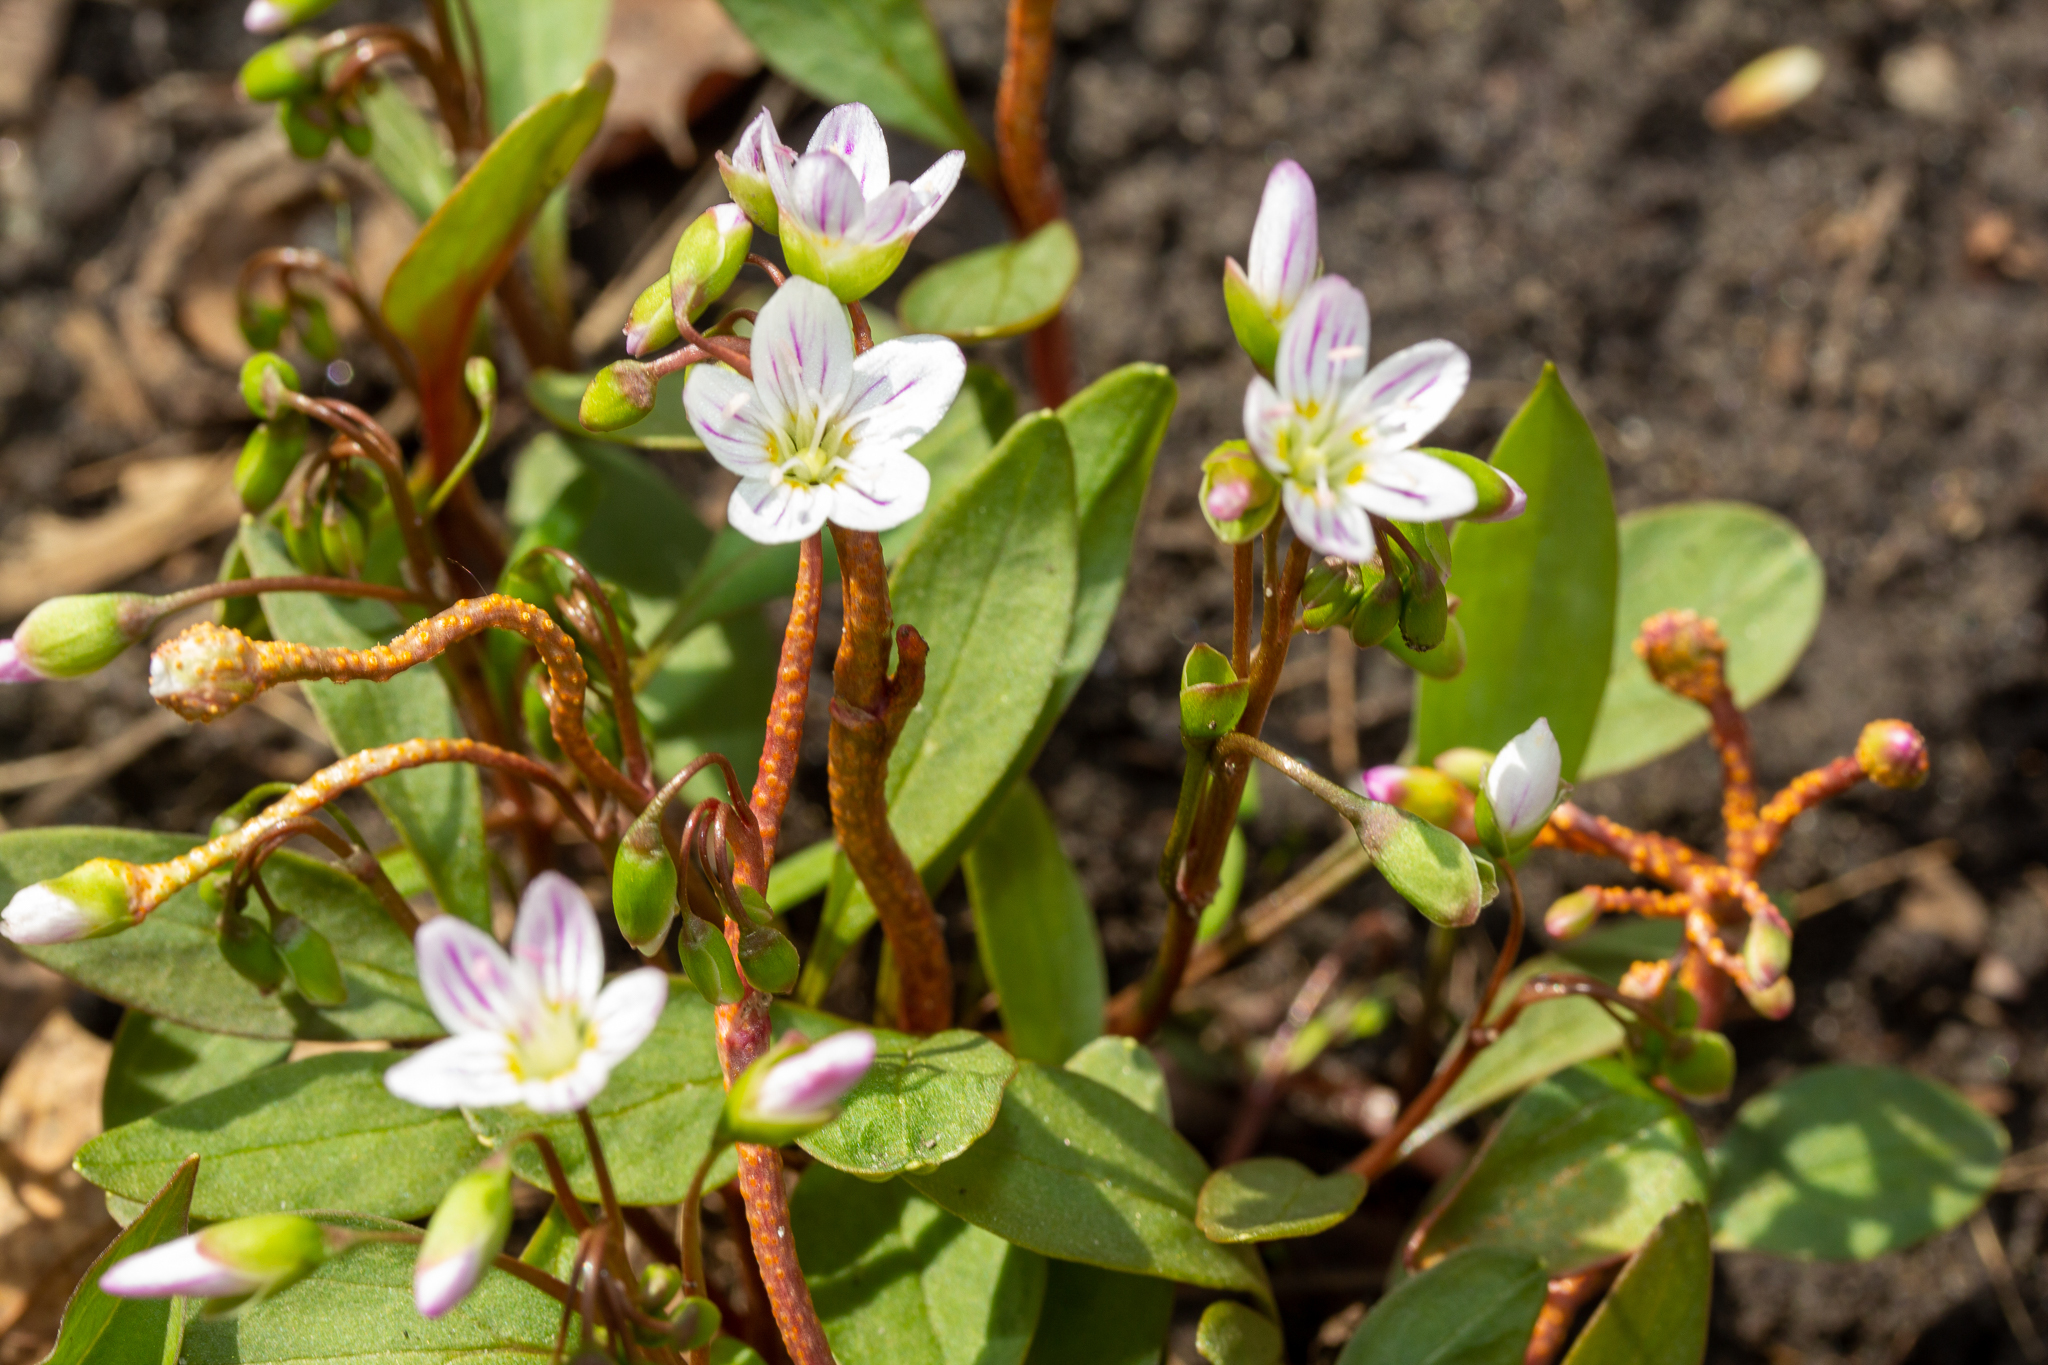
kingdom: Plantae
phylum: Tracheophyta
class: Magnoliopsida
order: Caryophyllales
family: Montiaceae
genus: Claytonia
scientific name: Claytonia caroliniana
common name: Carolina spring beauty
